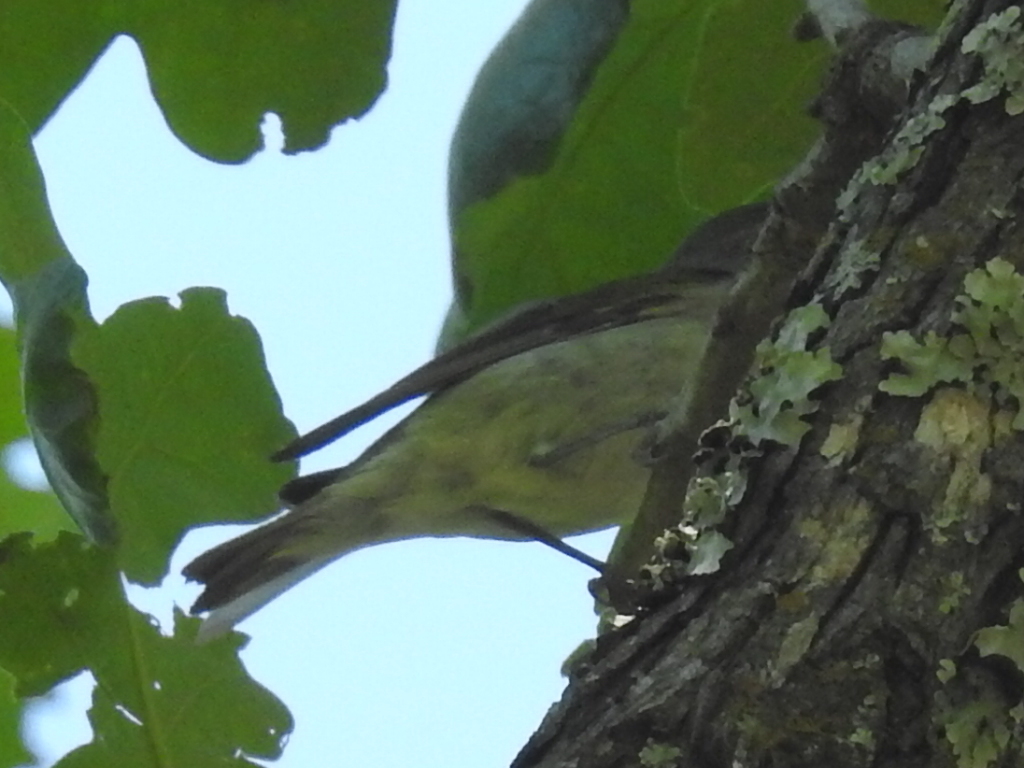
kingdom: Animalia
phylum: Chordata
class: Aves
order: Passeriformes
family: Parulidae
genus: Leiothlypis
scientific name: Leiothlypis peregrina
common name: Tennessee warbler
